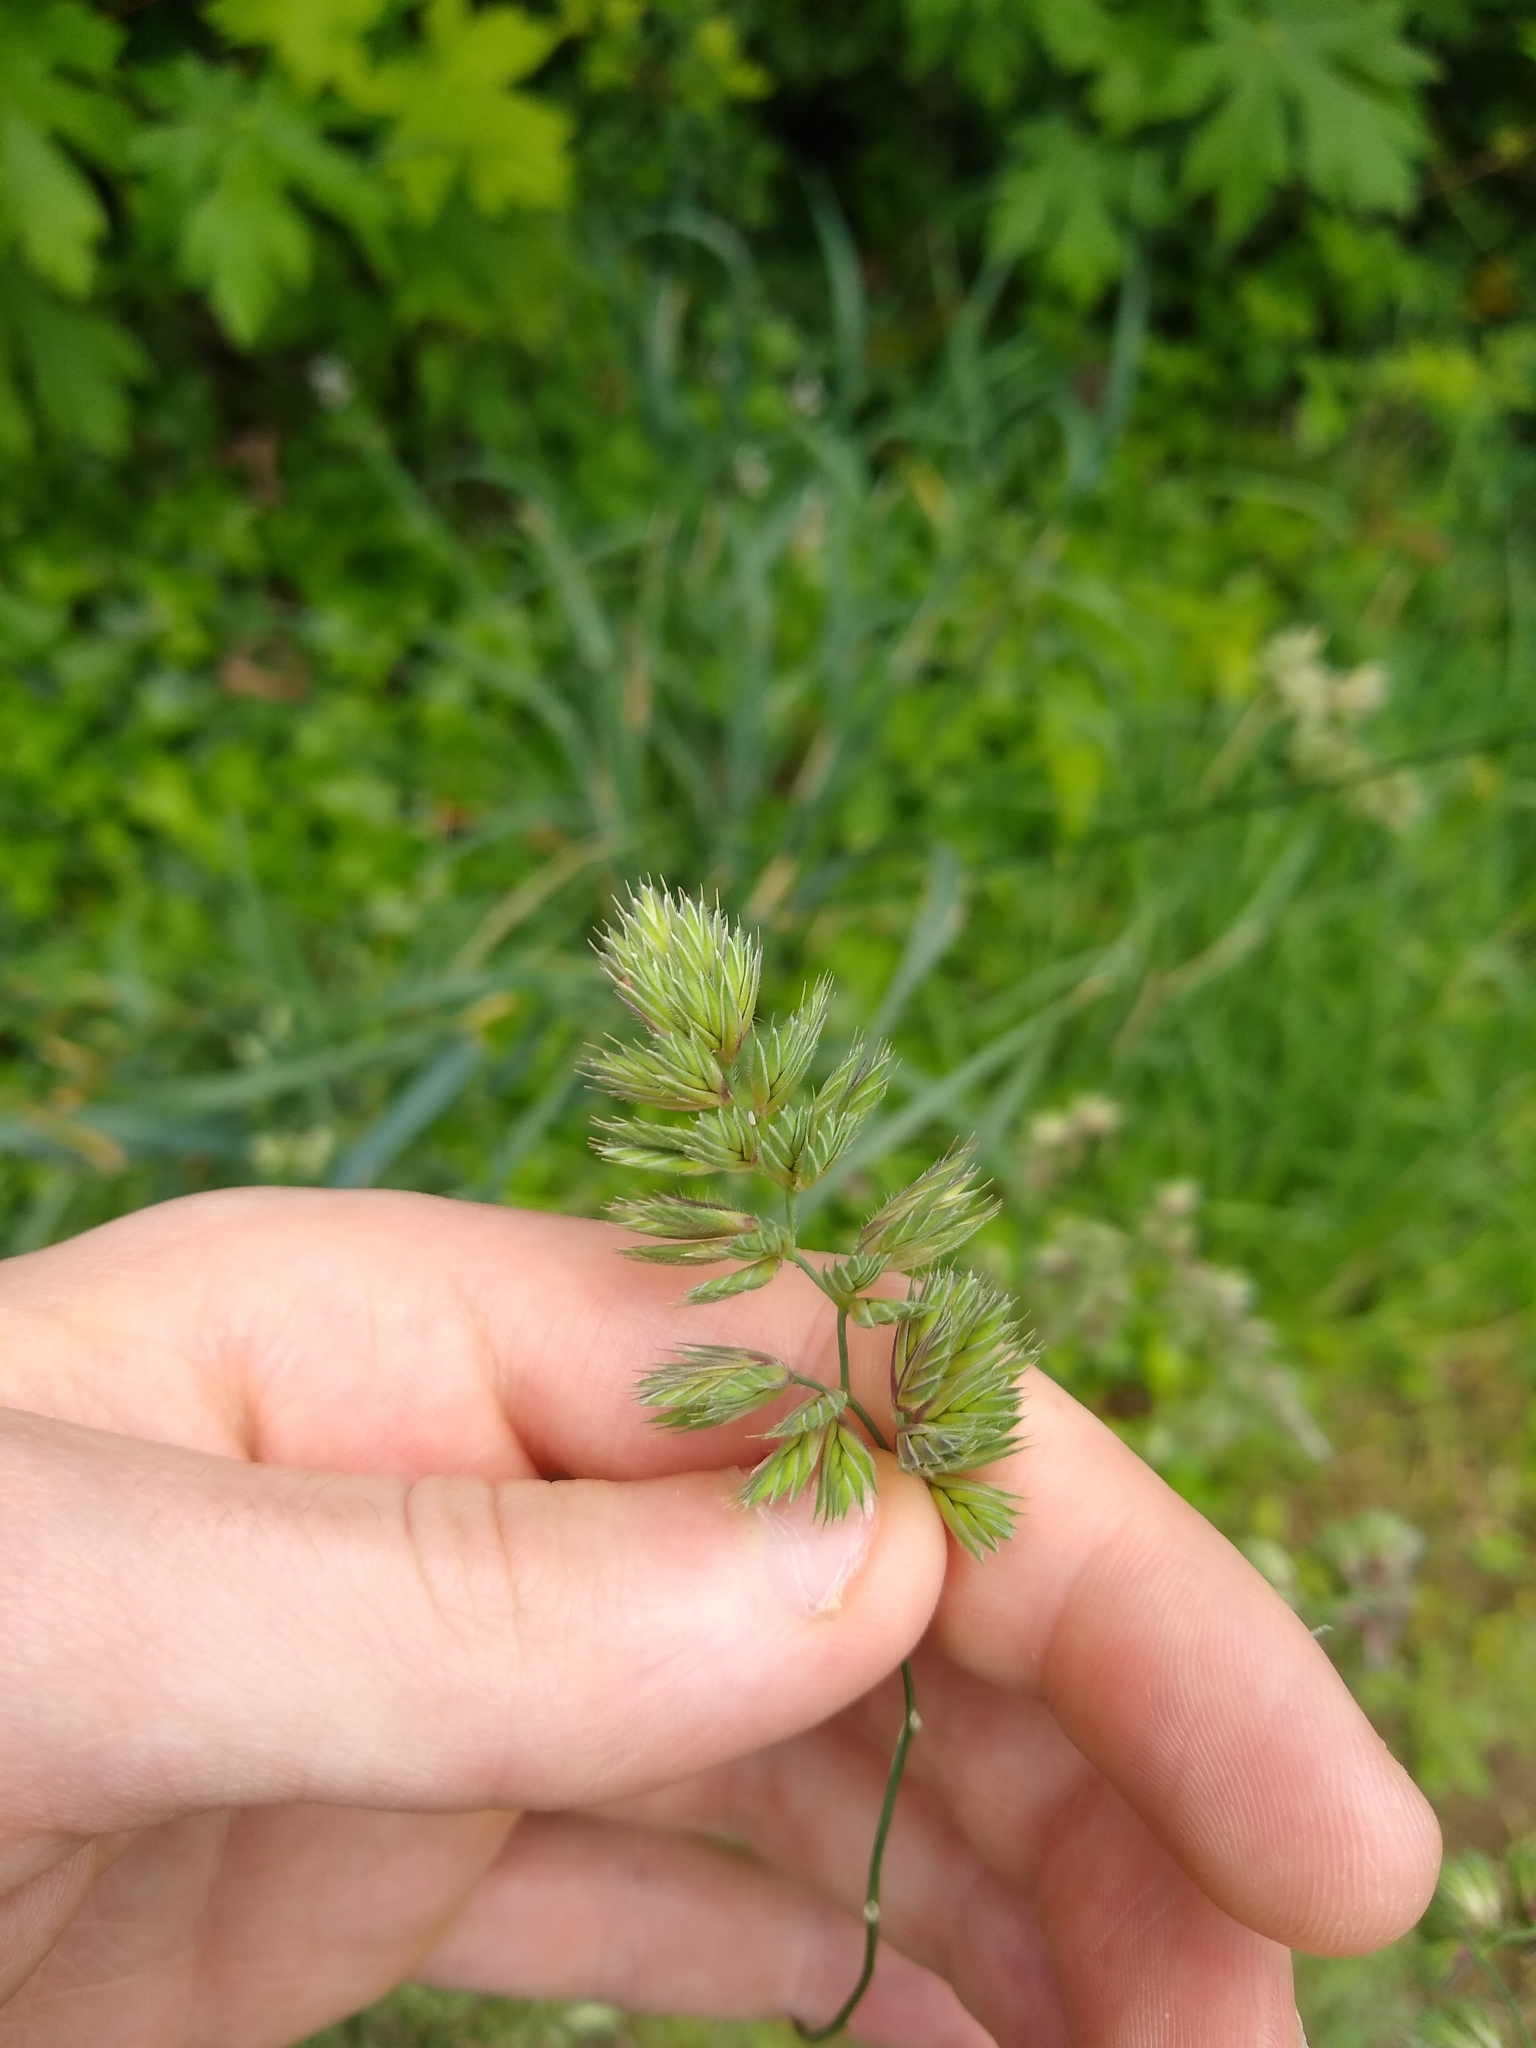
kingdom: Plantae
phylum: Tracheophyta
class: Liliopsida
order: Poales
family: Poaceae
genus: Dactylis
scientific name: Dactylis glomerata
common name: Orchardgrass
